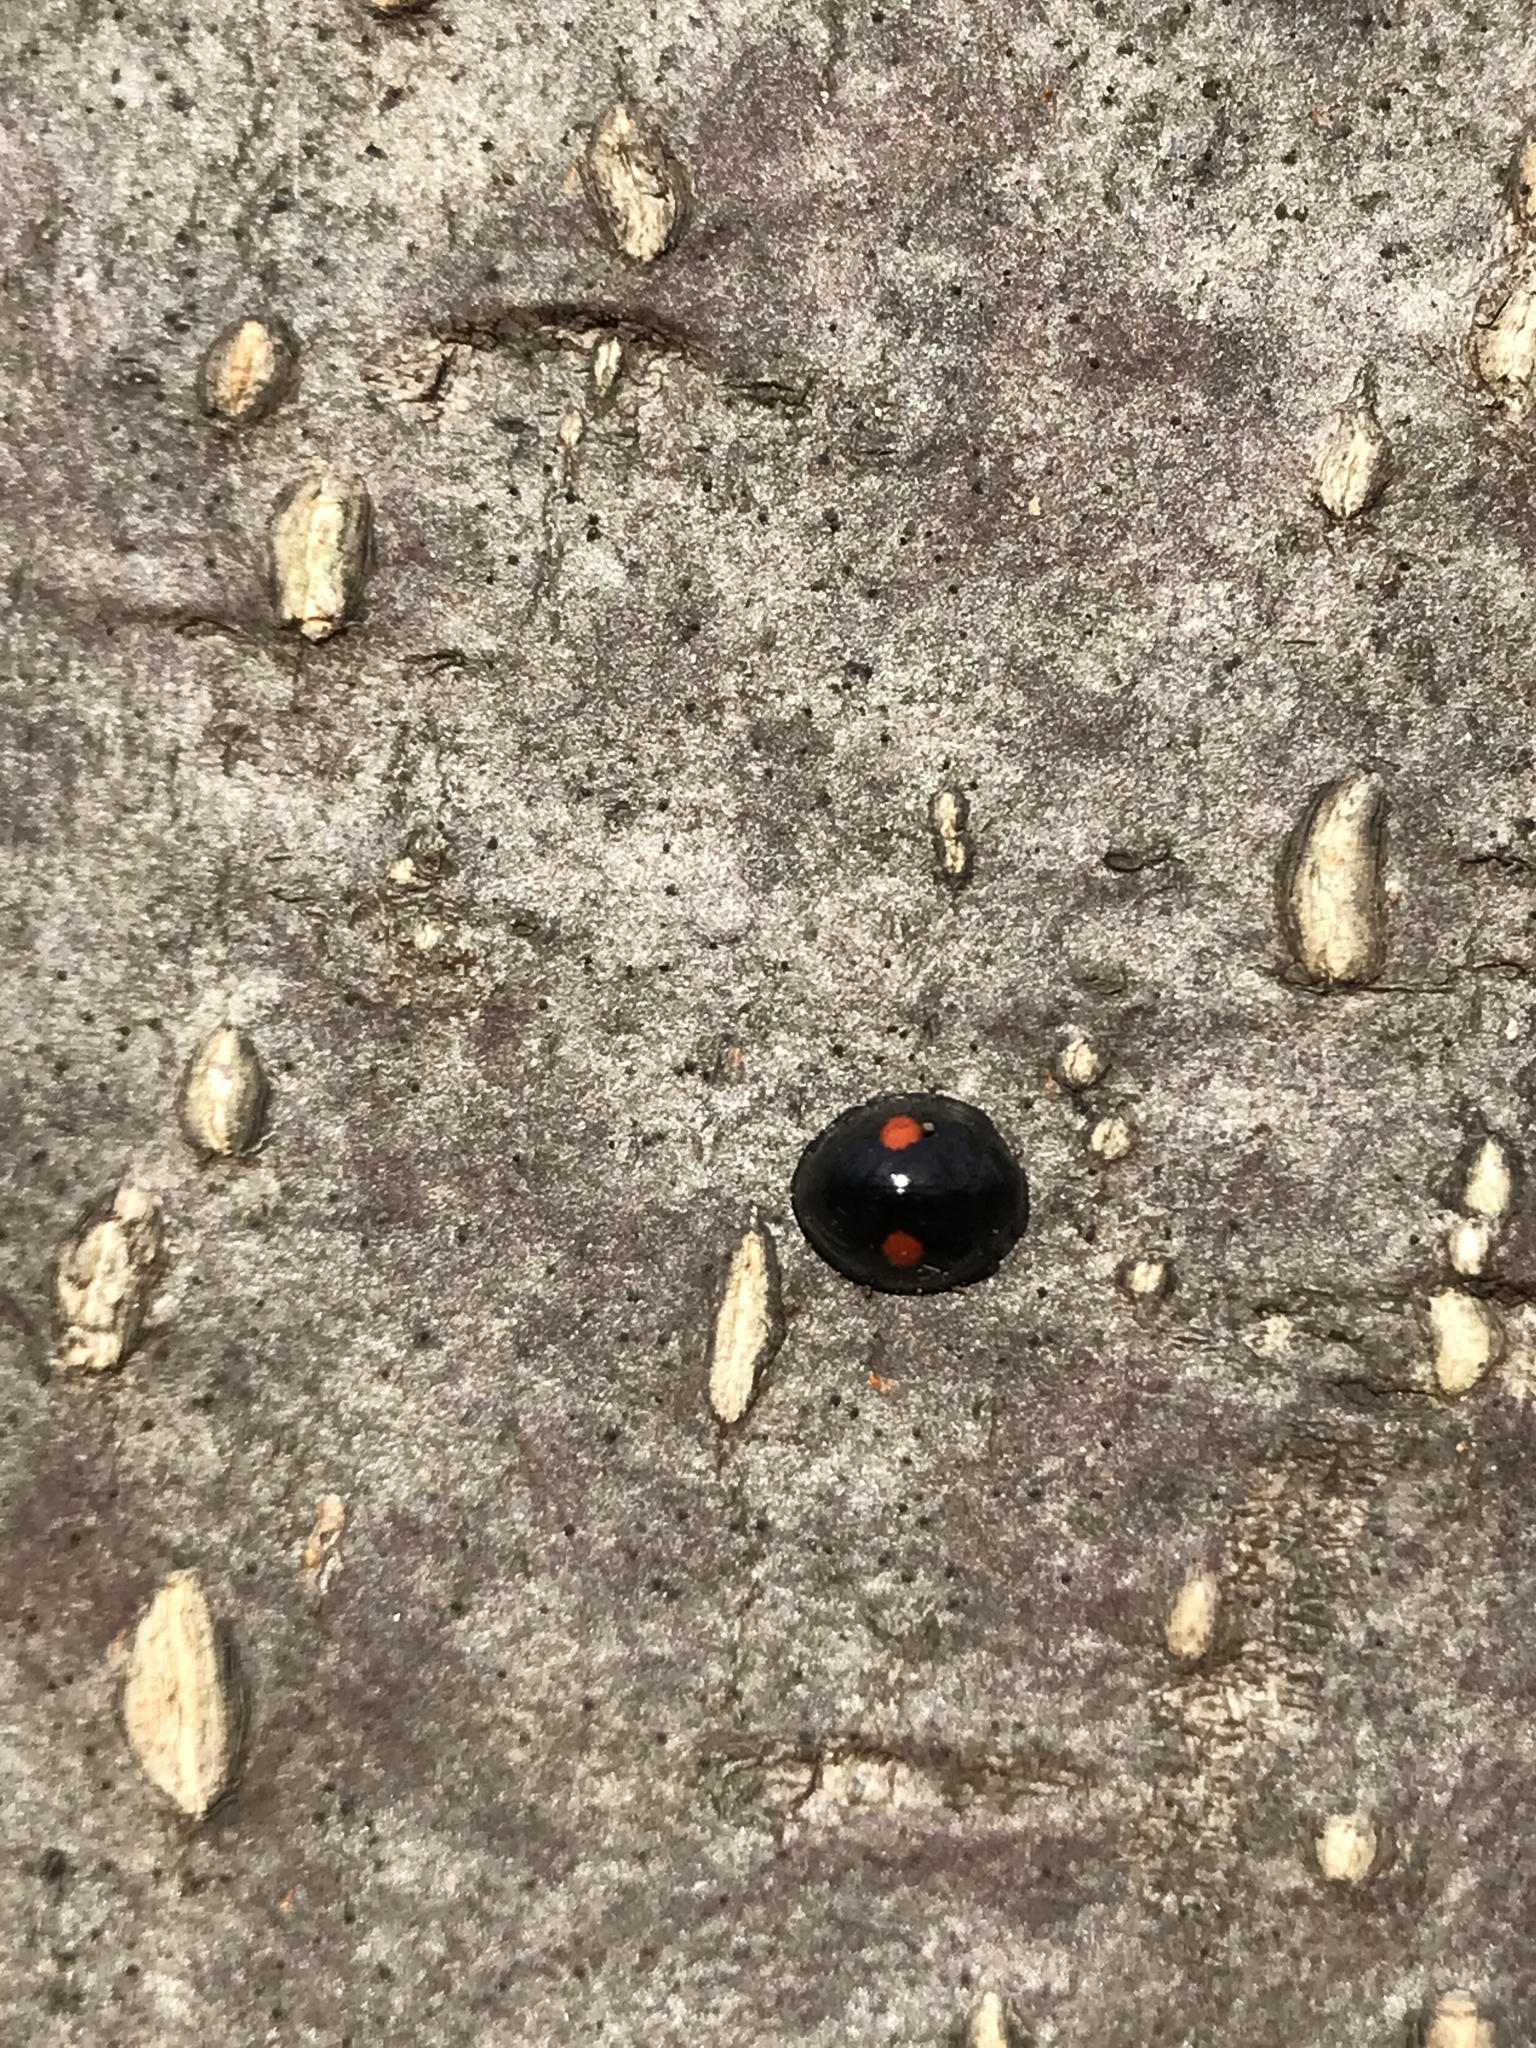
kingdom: Animalia
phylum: Arthropoda
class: Insecta
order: Coleoptera
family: Coccinellidae
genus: Chilocorus
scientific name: Chilocorus stigma
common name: Twicestabbed lady beetle
